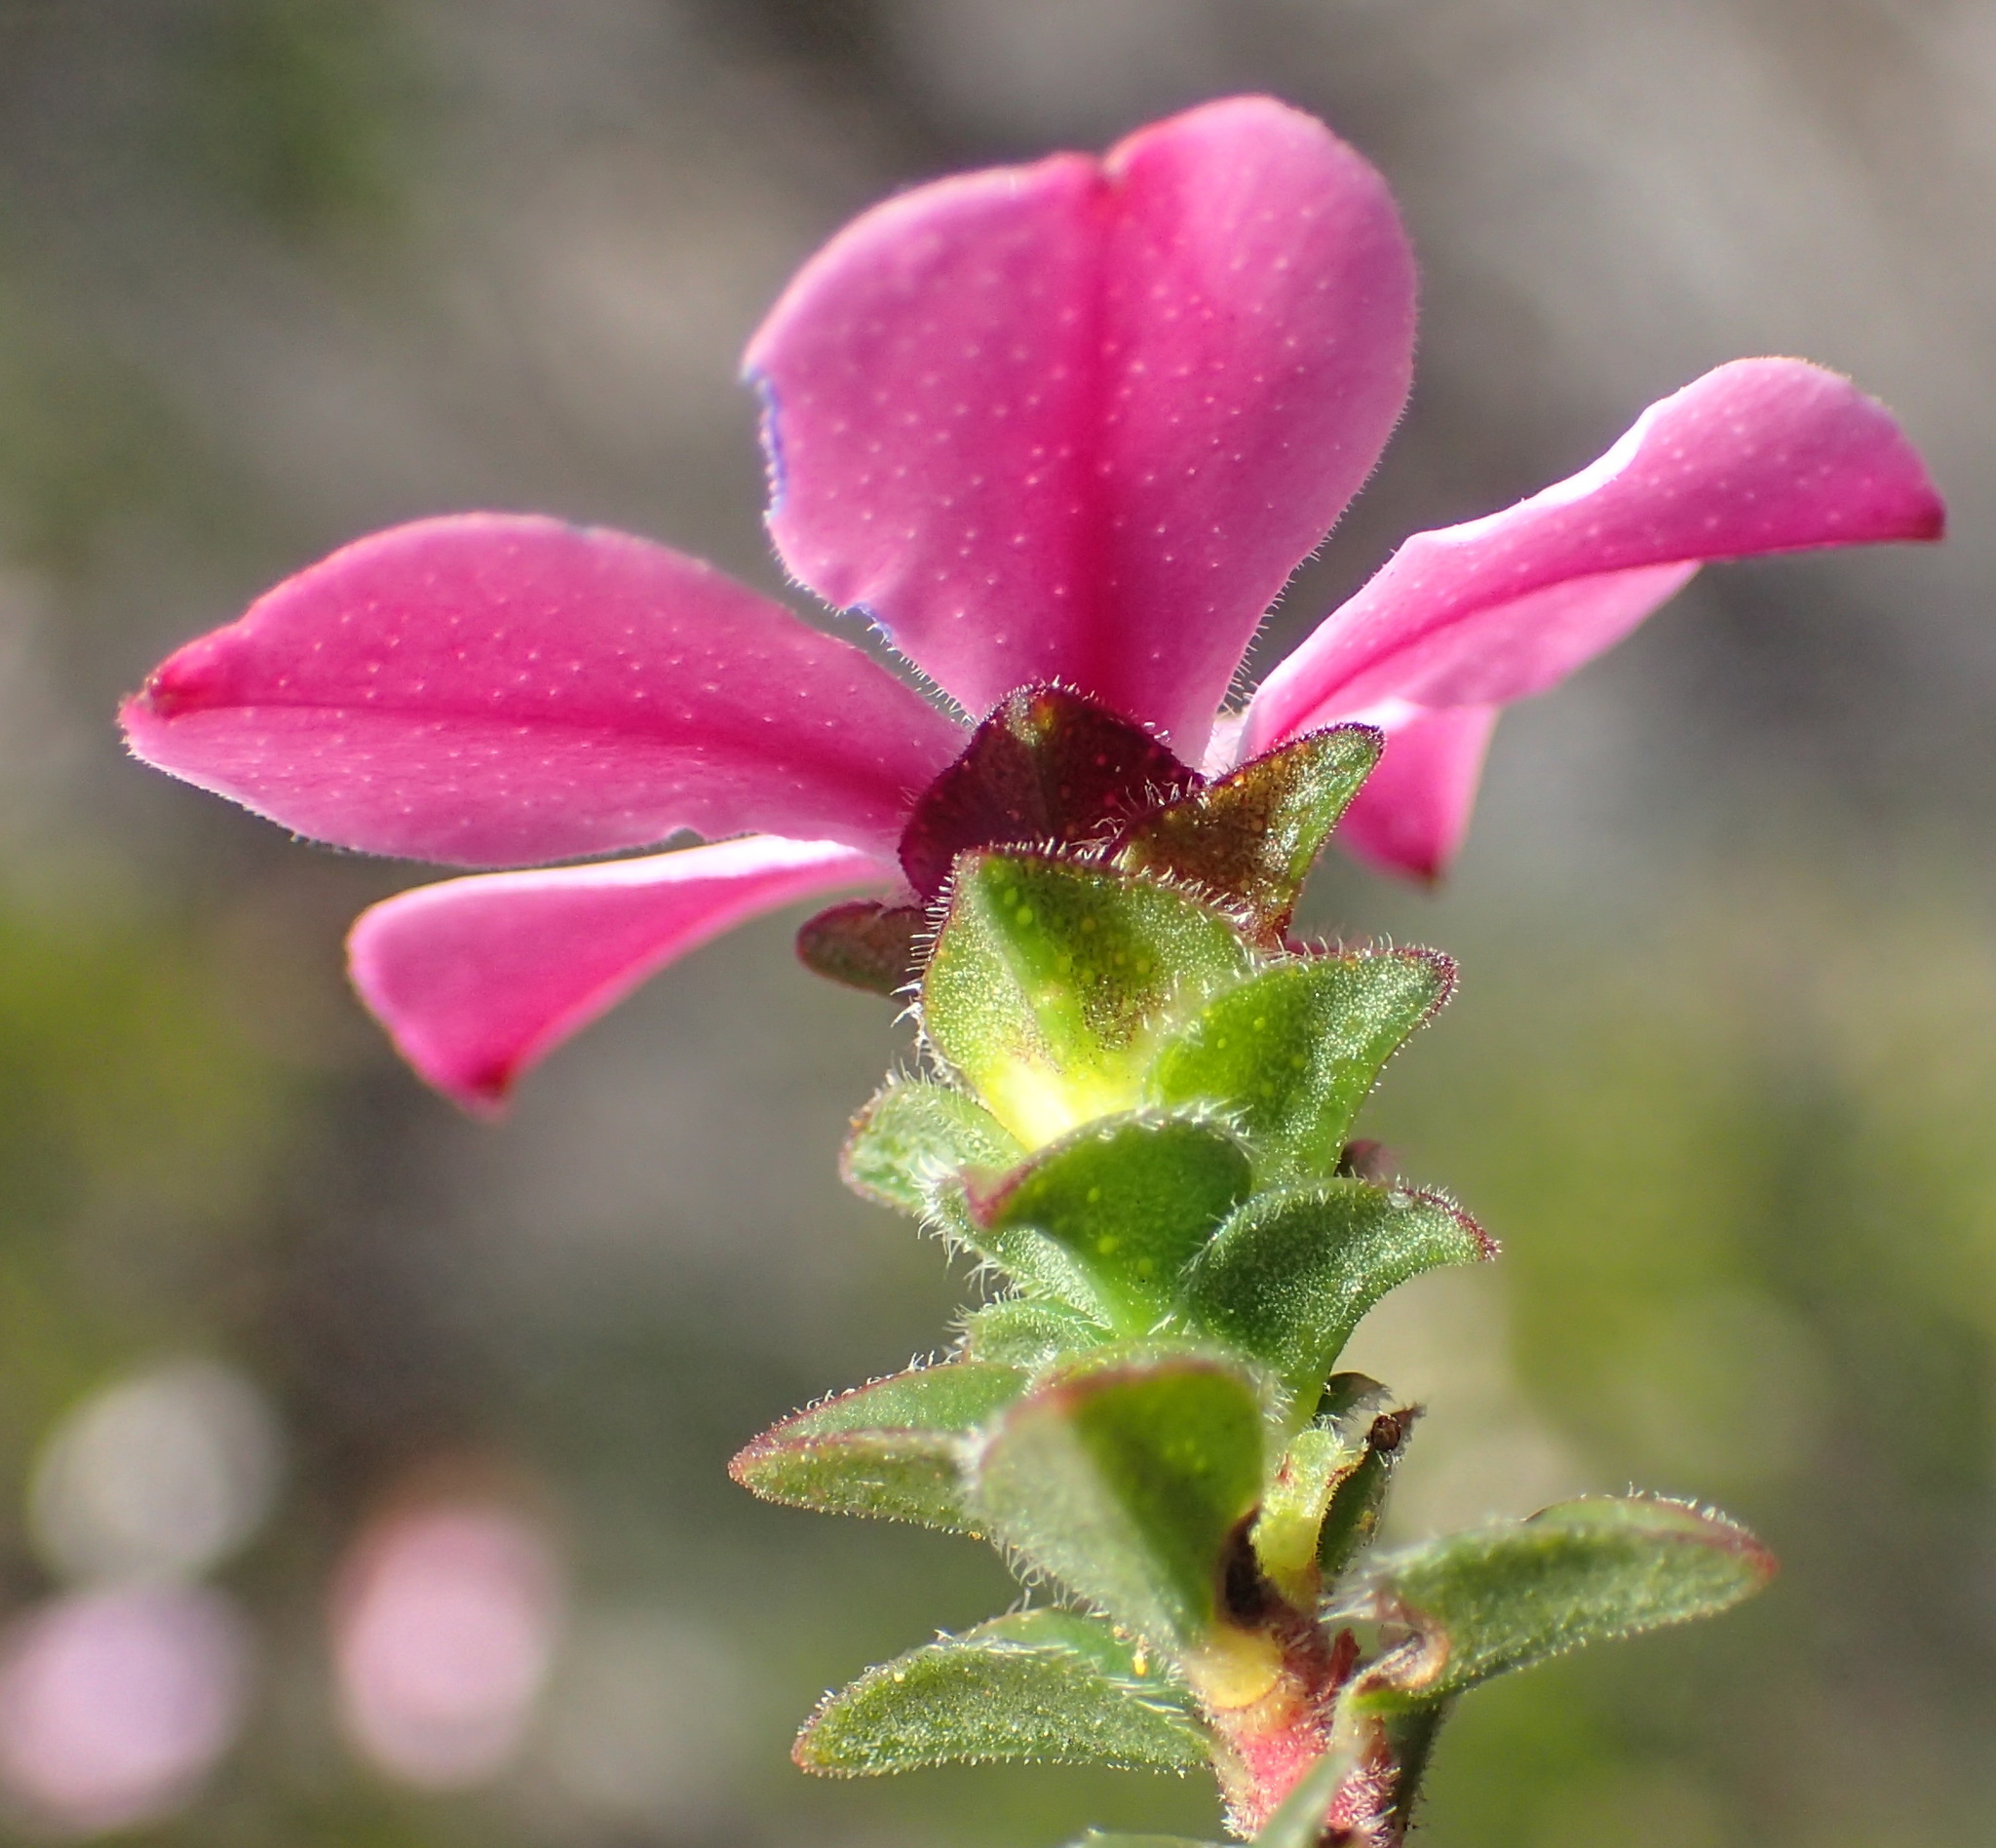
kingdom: Plantae
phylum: Tracheophyta
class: Magnoliopsida
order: Sapindales
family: Rutaceae
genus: Acmadenia
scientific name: Acmadenia tetragona
